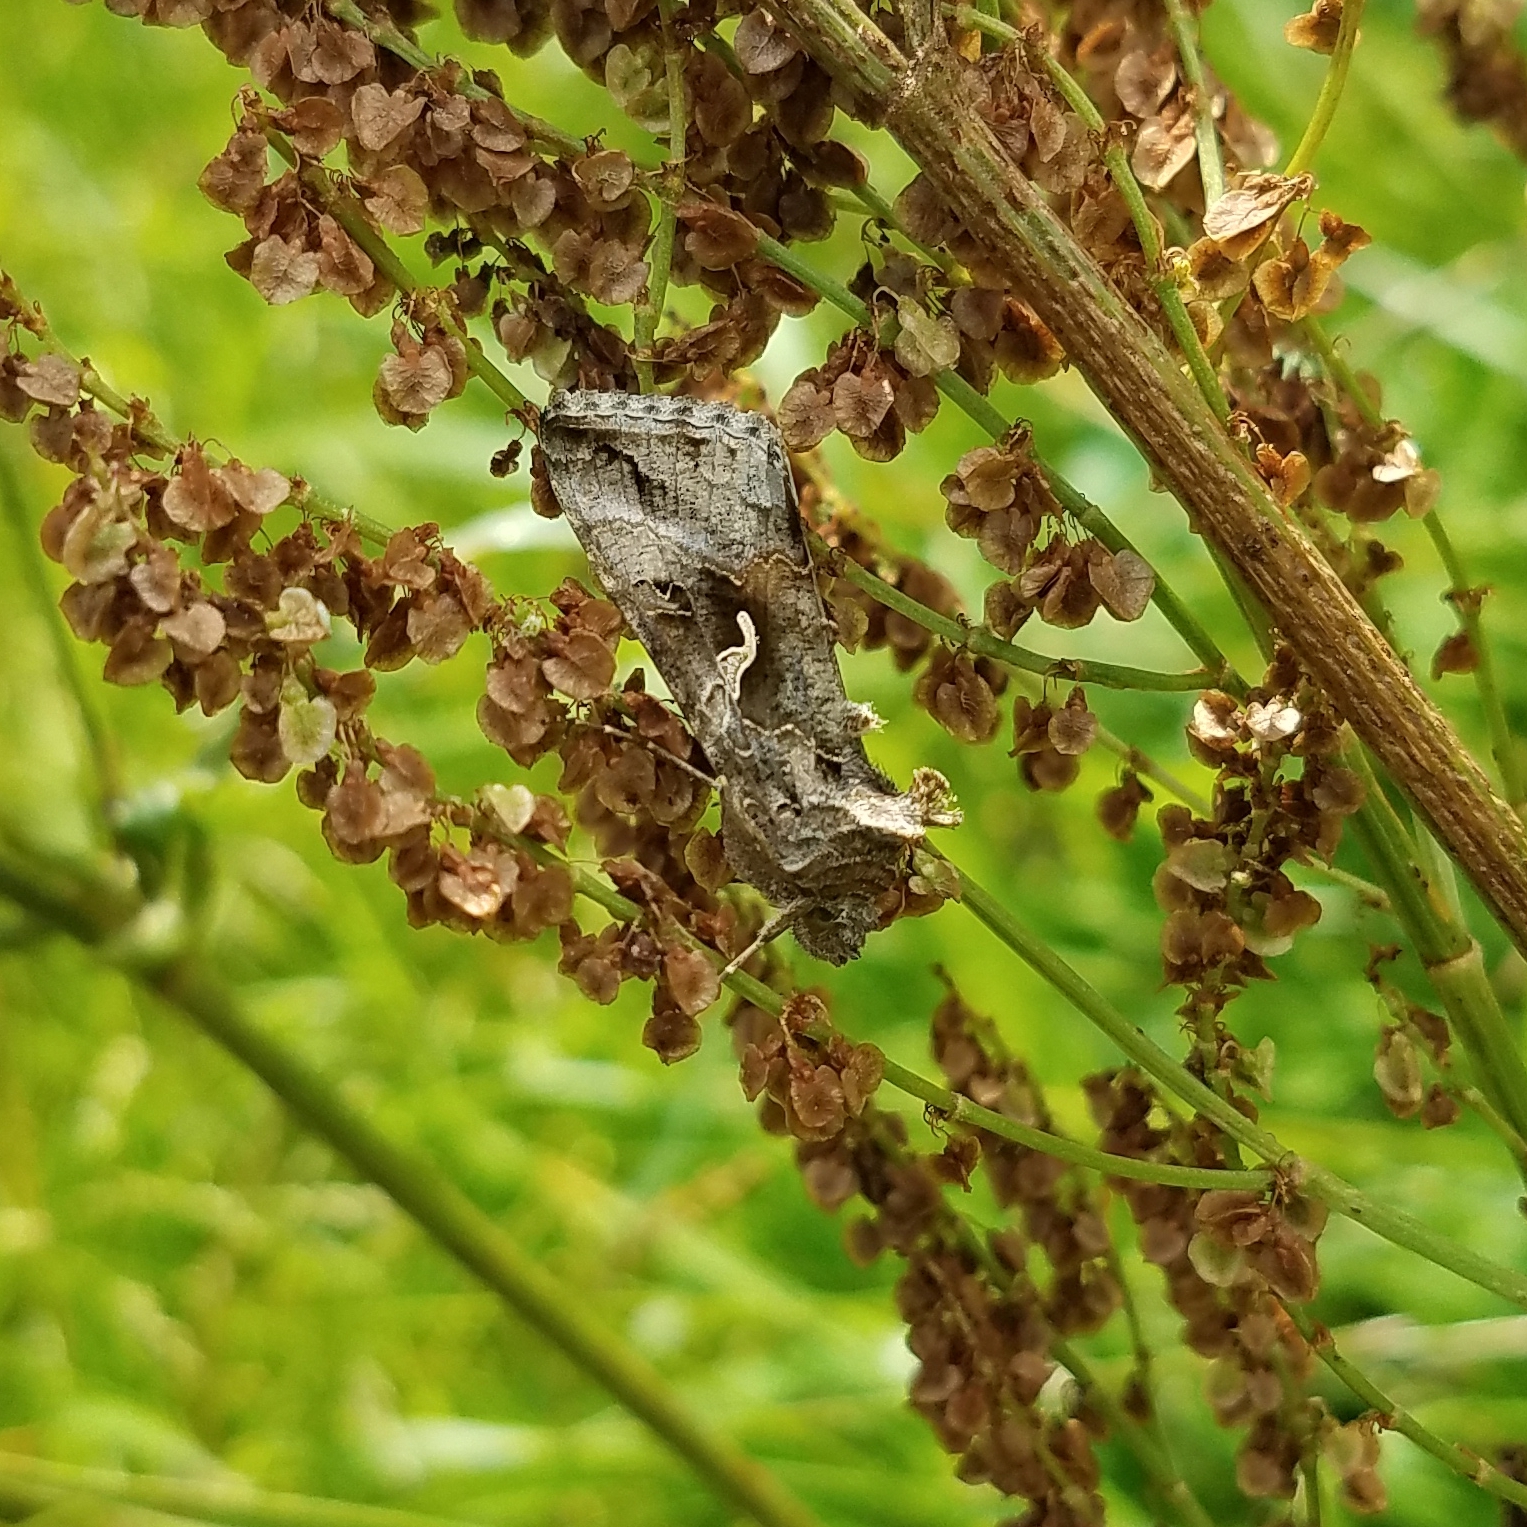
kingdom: Animalia
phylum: Arthropoda
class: Insecta
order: Lepidoptera
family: Noctuidae
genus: Autographa
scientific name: Autographa gamma
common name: Silver y
